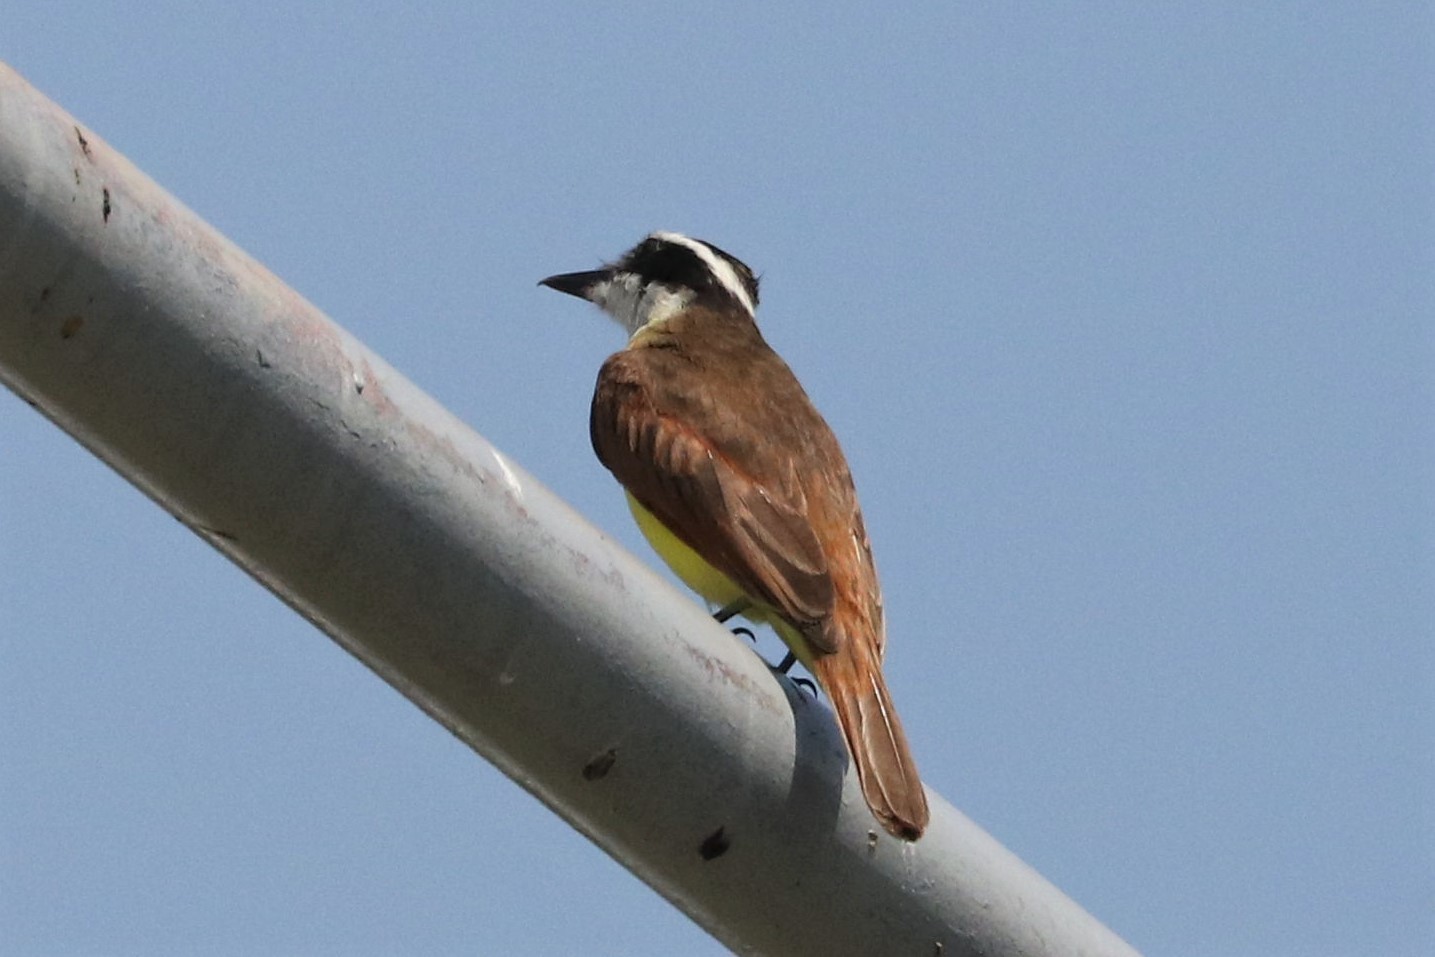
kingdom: Animalia
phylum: Chordata
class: Aves
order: Passeriformes
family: Tyrannidae
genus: Pitangus
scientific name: Pitangus sulphuratus
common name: Great kiskadee
